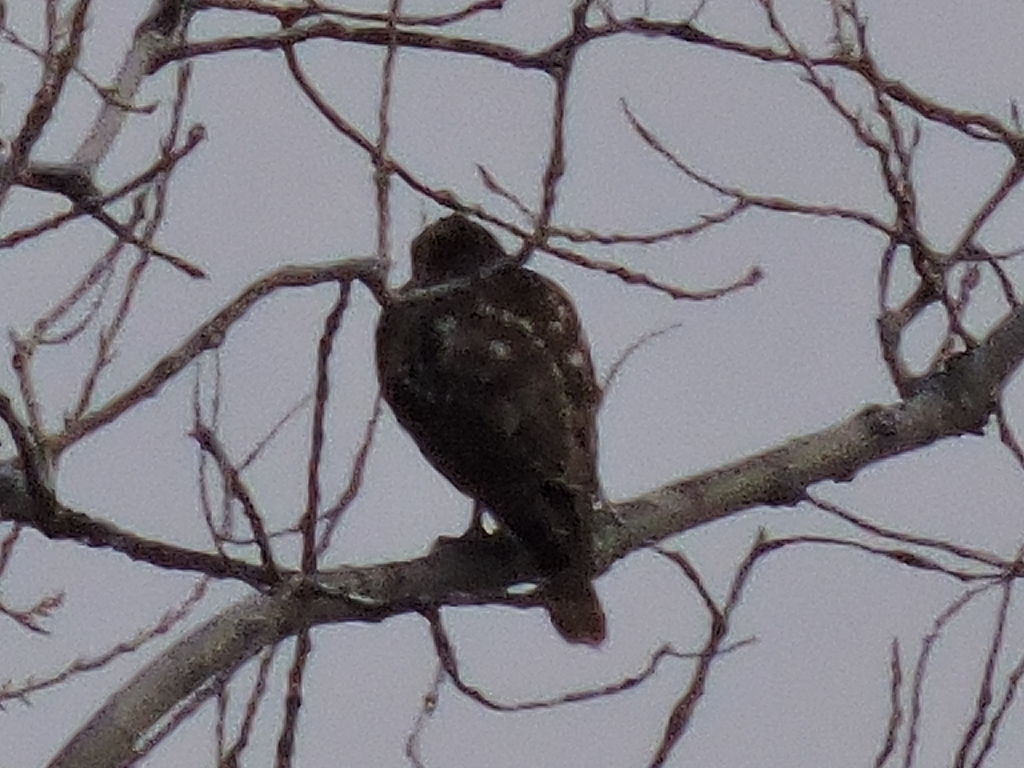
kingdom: Animalia
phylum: Chordata
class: Aves
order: Accipitriformes
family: Accipitridae
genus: Buteo
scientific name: Buteo jamaicensis
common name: Red-tailed hawk
